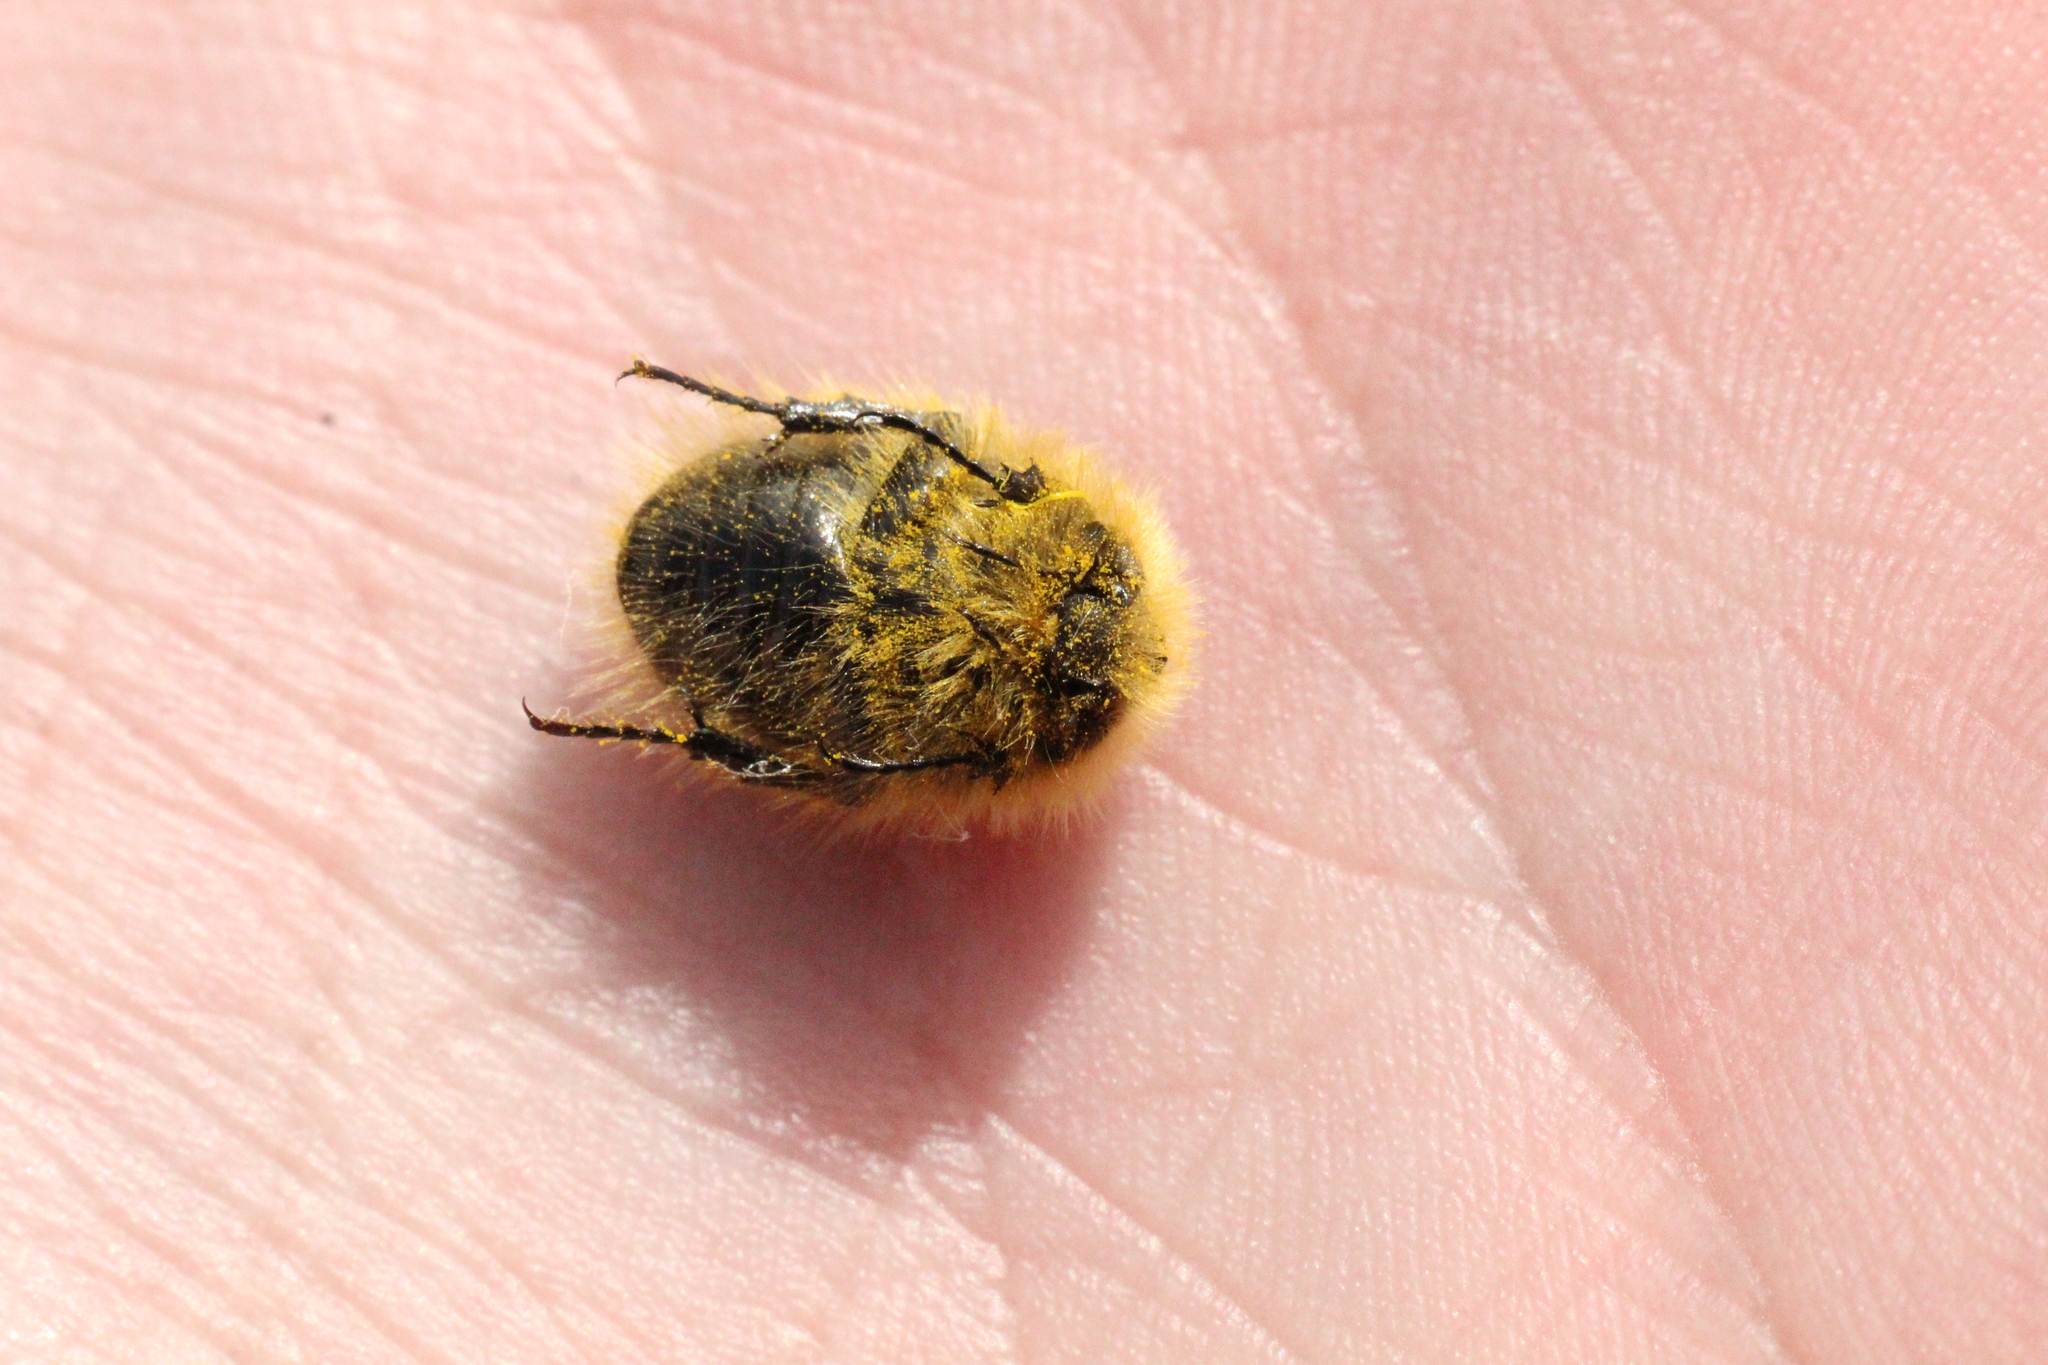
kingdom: Animalia
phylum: Arthropoda
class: Insecta
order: Coleoptera
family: Scarabaeidae
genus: Tropinota
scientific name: Tropinota hirta
